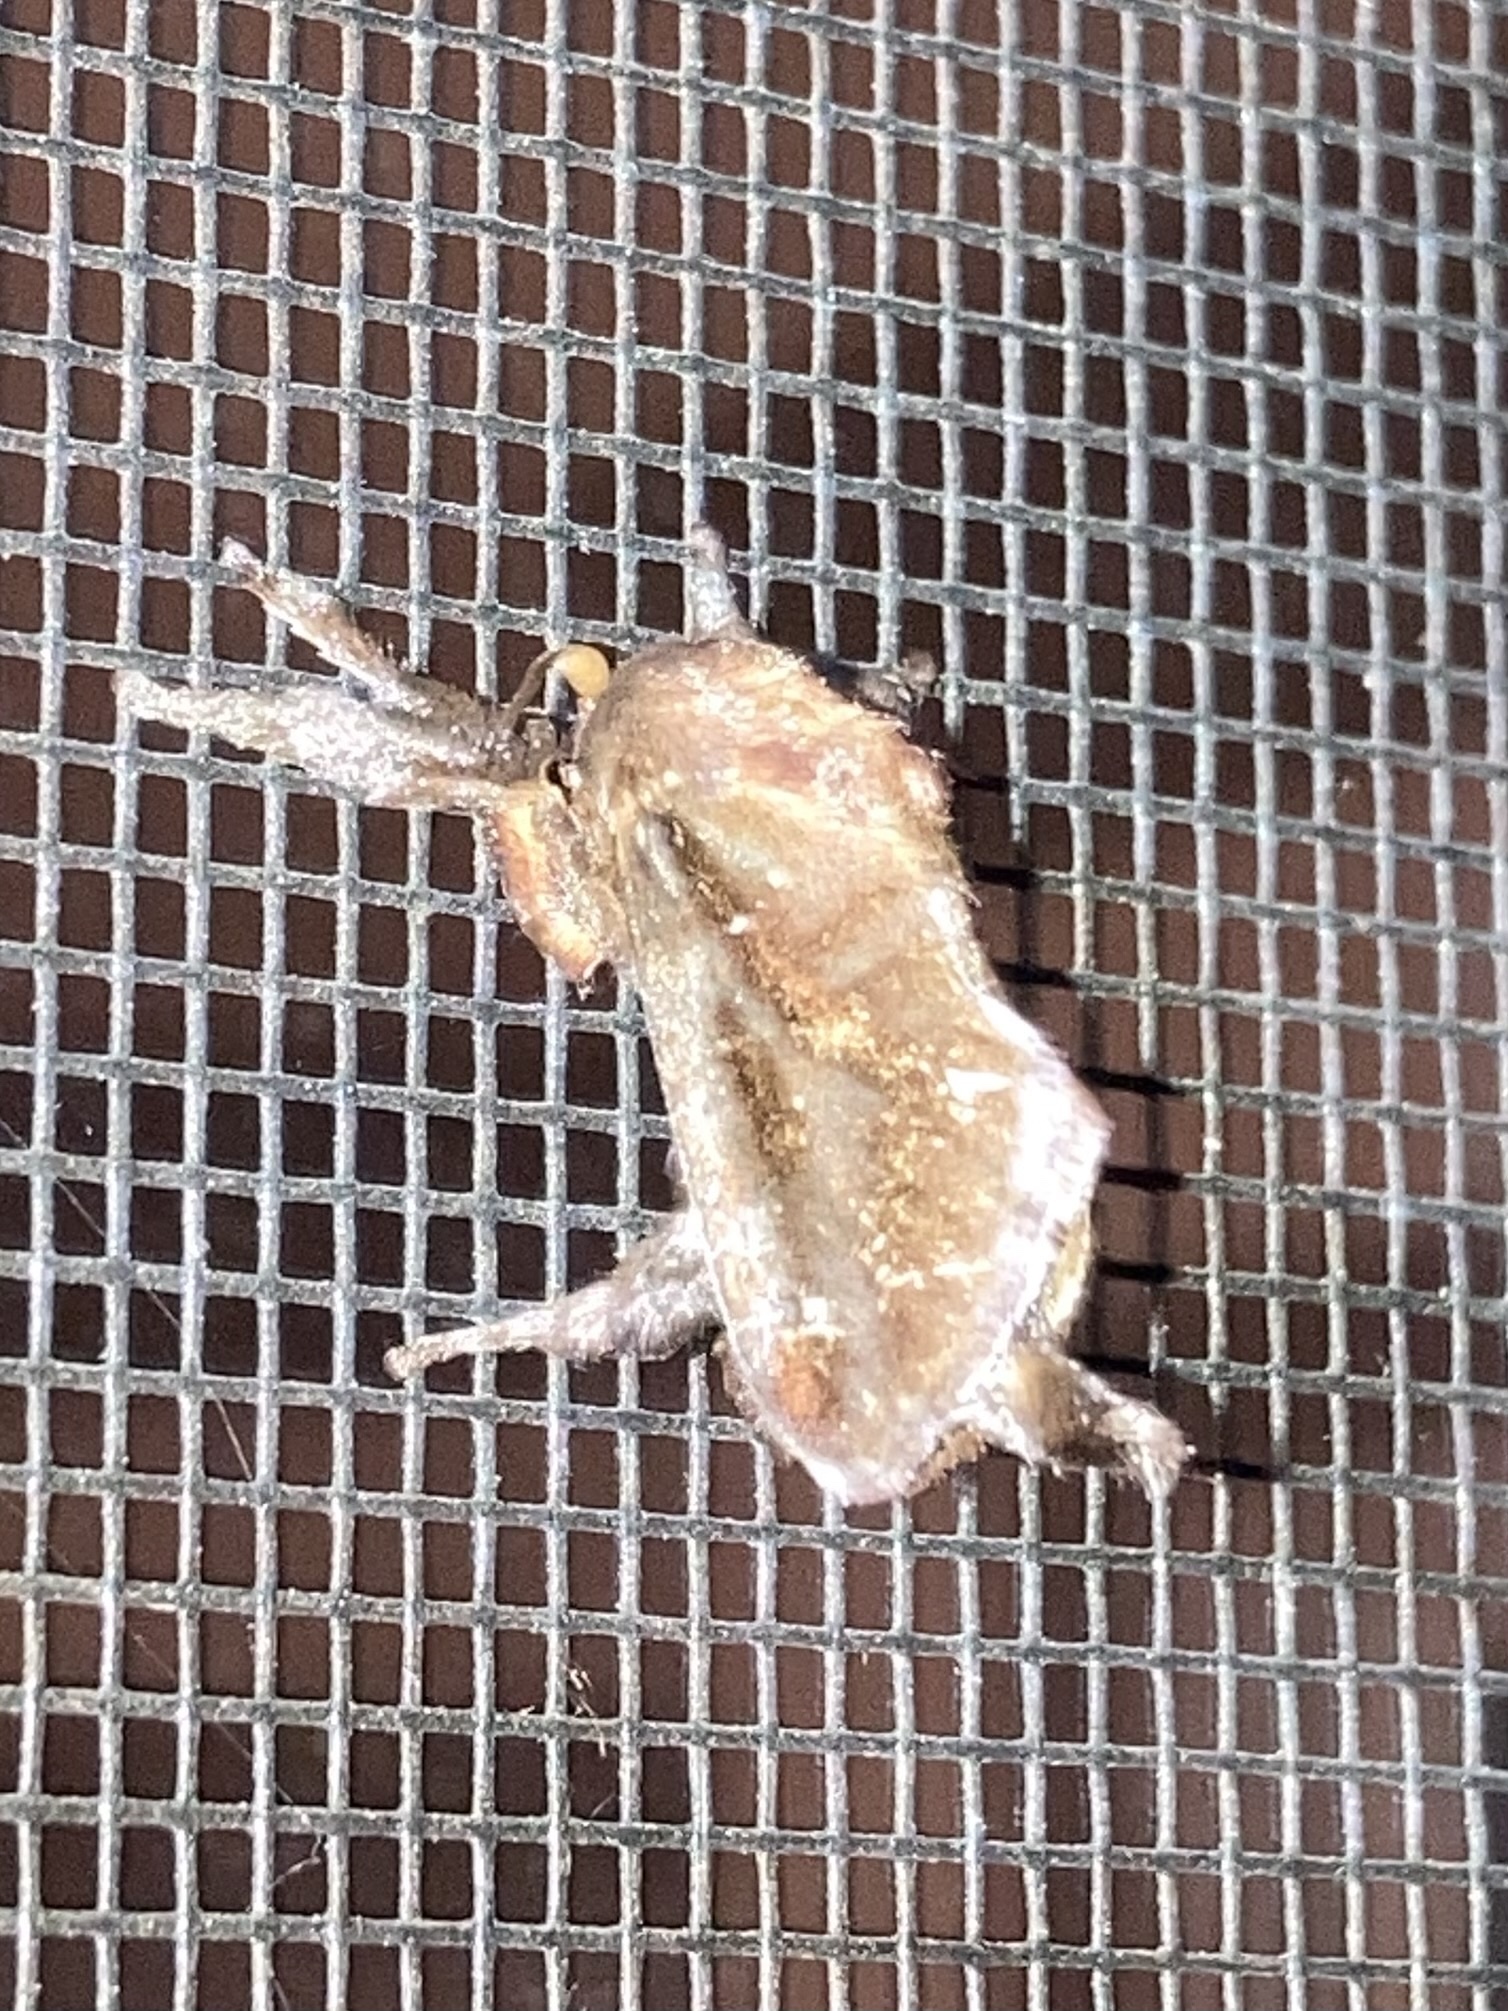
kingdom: Animalia
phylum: Arthropoda
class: Insecta
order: Lepidoptera
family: Limacodidae
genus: Acharia
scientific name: Acharia stimulea
